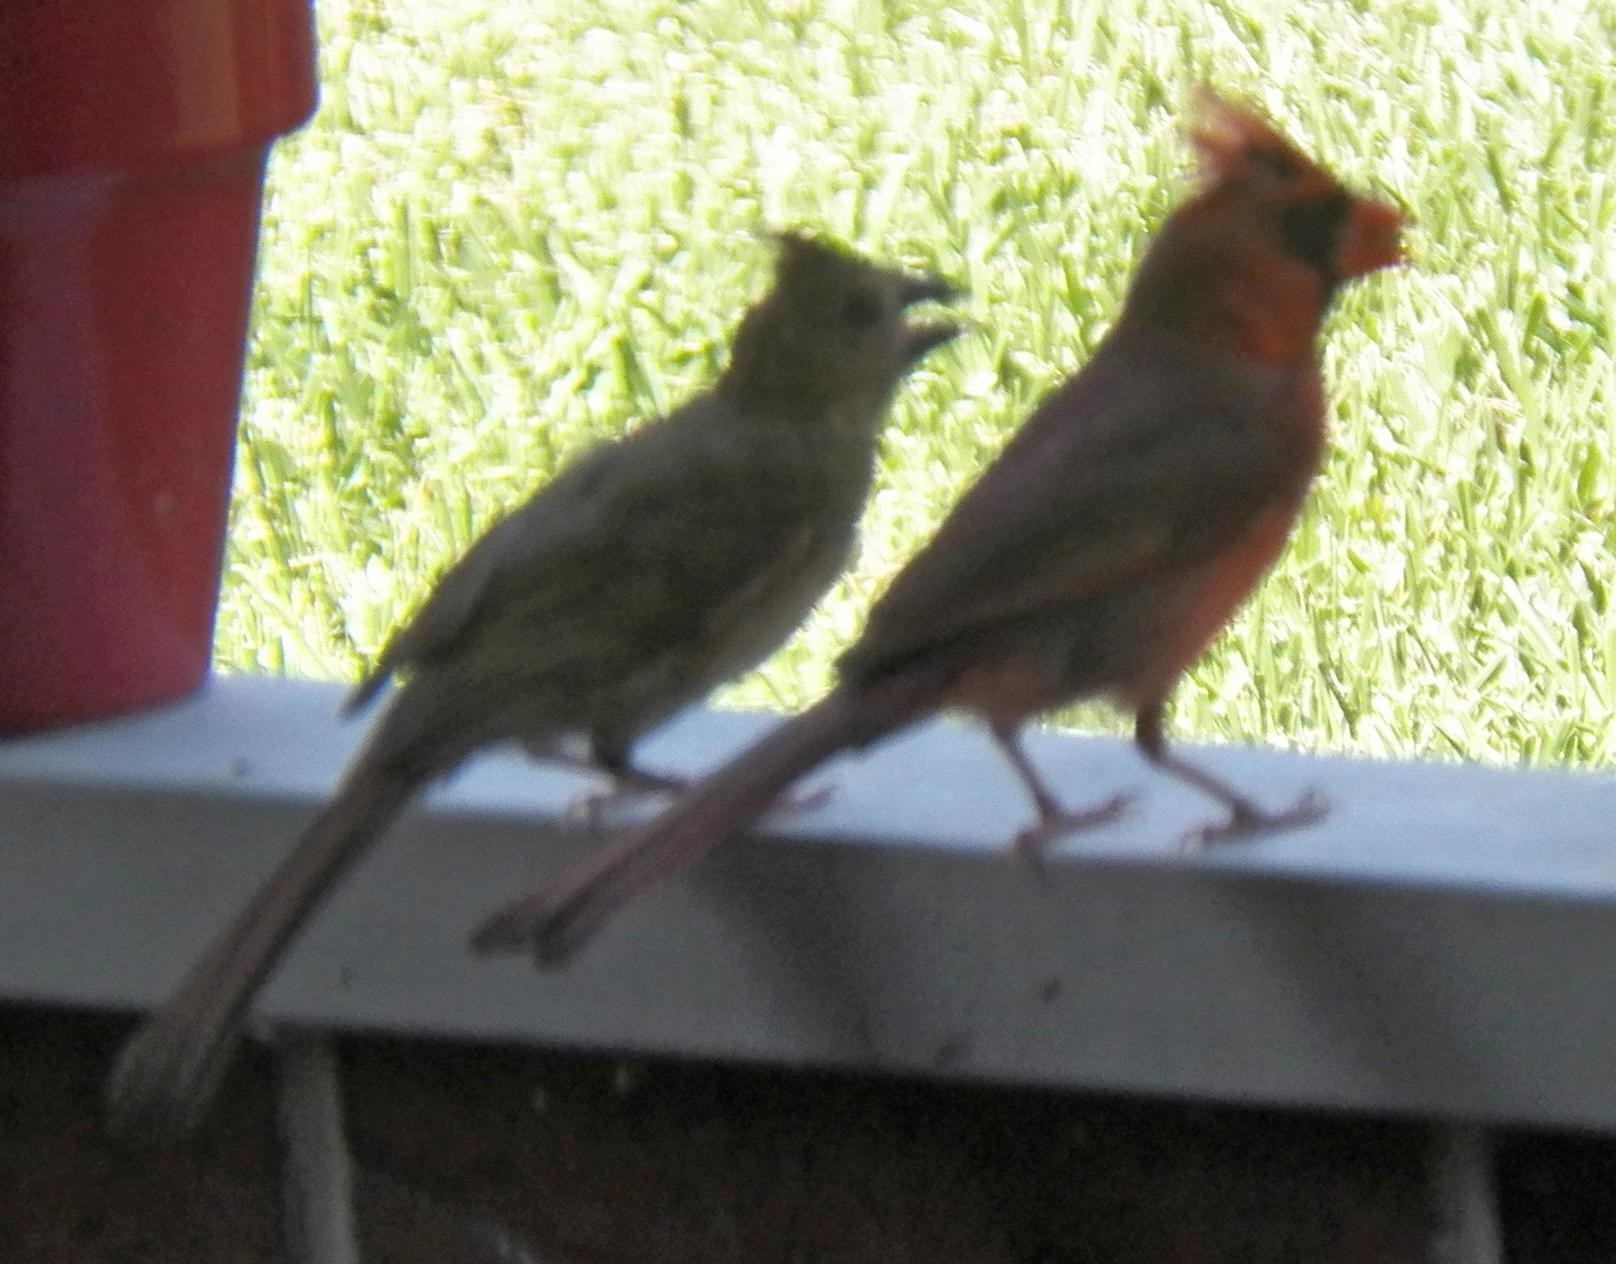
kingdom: Animalia
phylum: Chordata
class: Aves
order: Passeriformes
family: Cardinalidae
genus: Cardinalis
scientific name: Cardinalis cardinalis
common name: Northern cardinal
